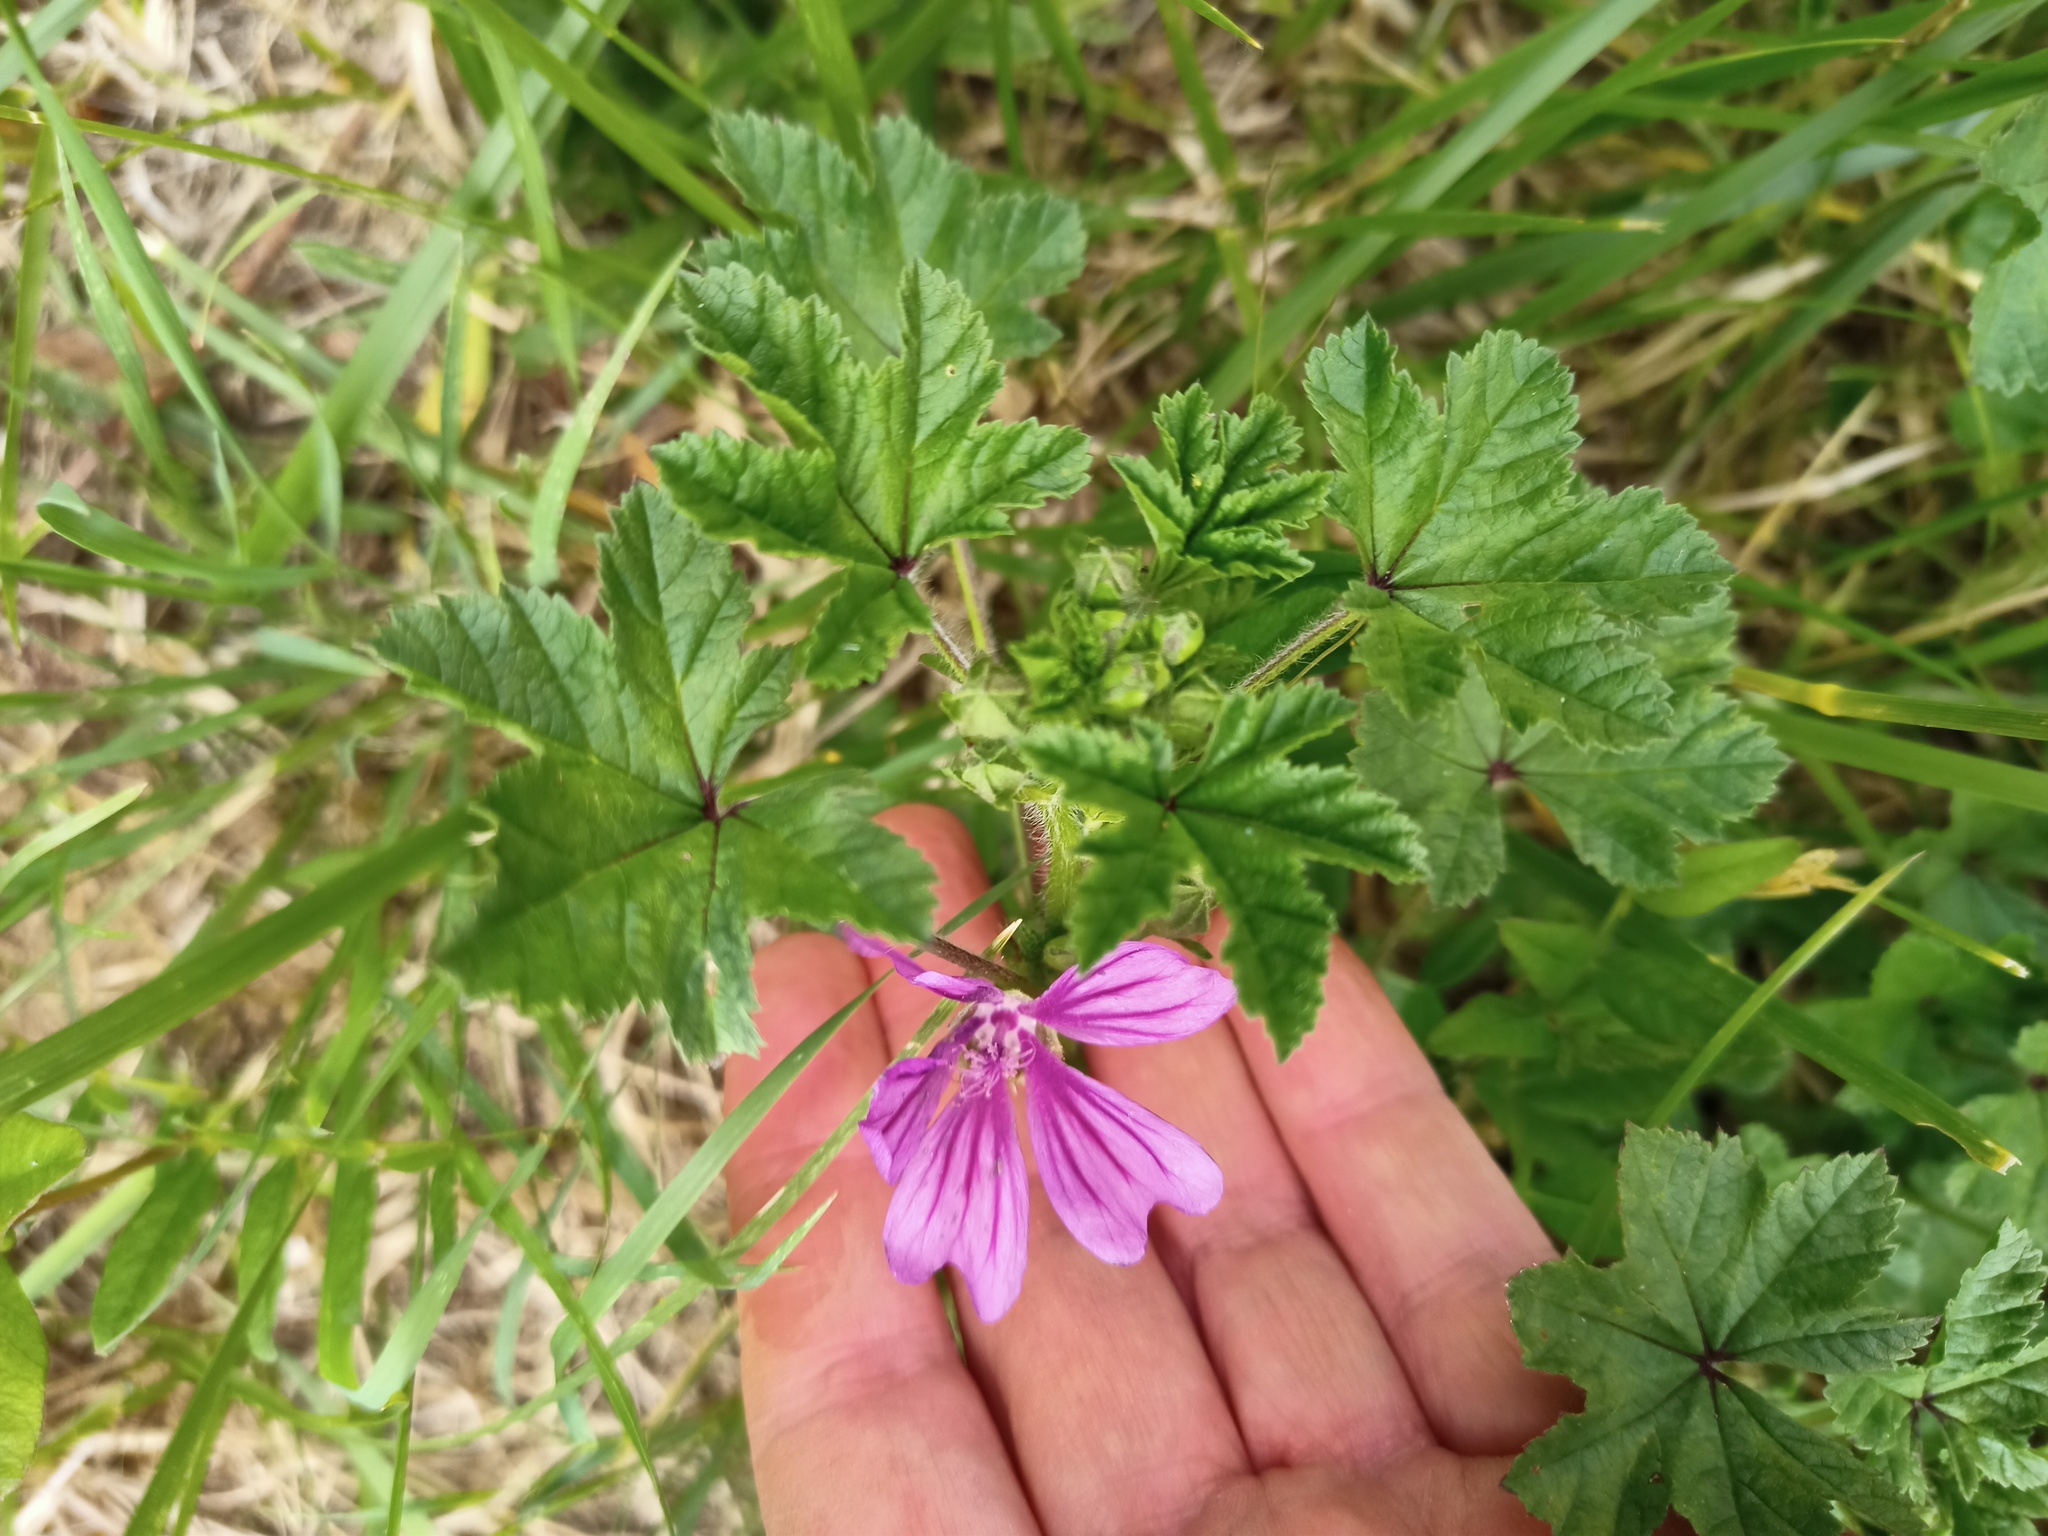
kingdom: Plantae
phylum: Tracheophyta
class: Magnoliopsida
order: Malvales
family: Malvaceae
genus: Malva
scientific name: Malva sylvestris
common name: Common mallow
